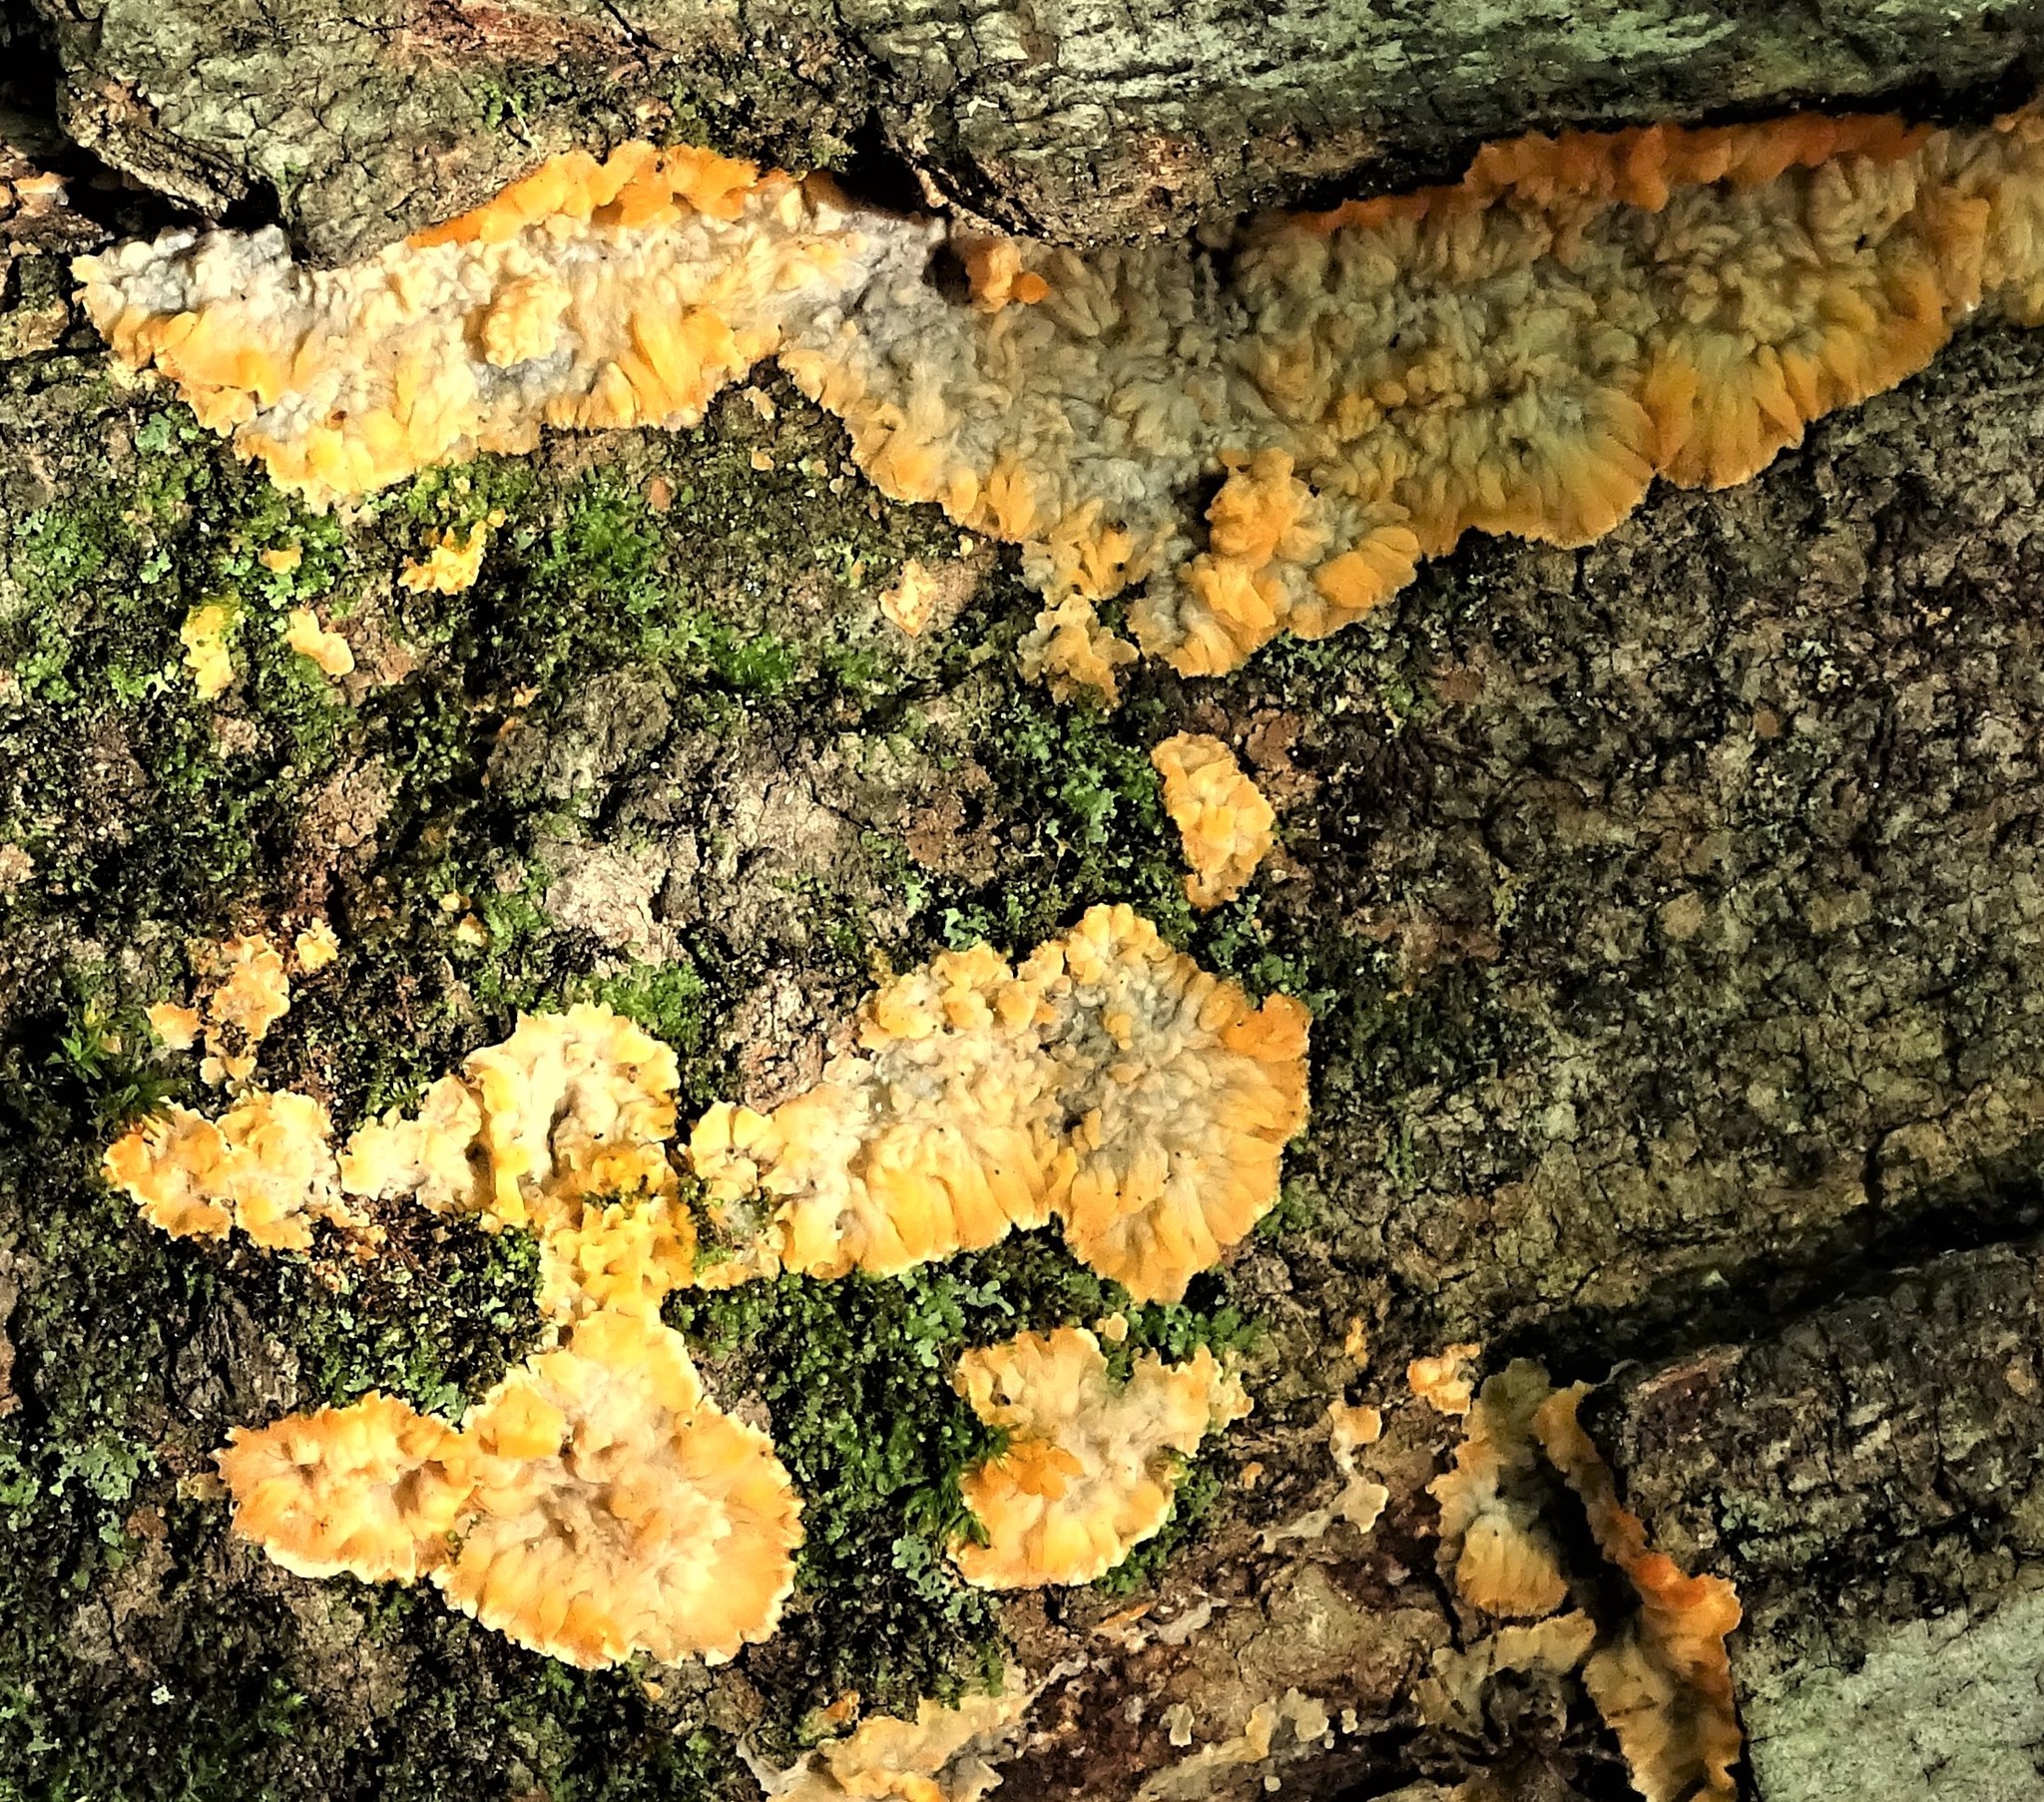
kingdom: Fungi
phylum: Basidiomycota
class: Agaricomycetes
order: Polyporales
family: Meruliaceae
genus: Phlebia
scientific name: Phlebia radiata
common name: Wrinkled crust
